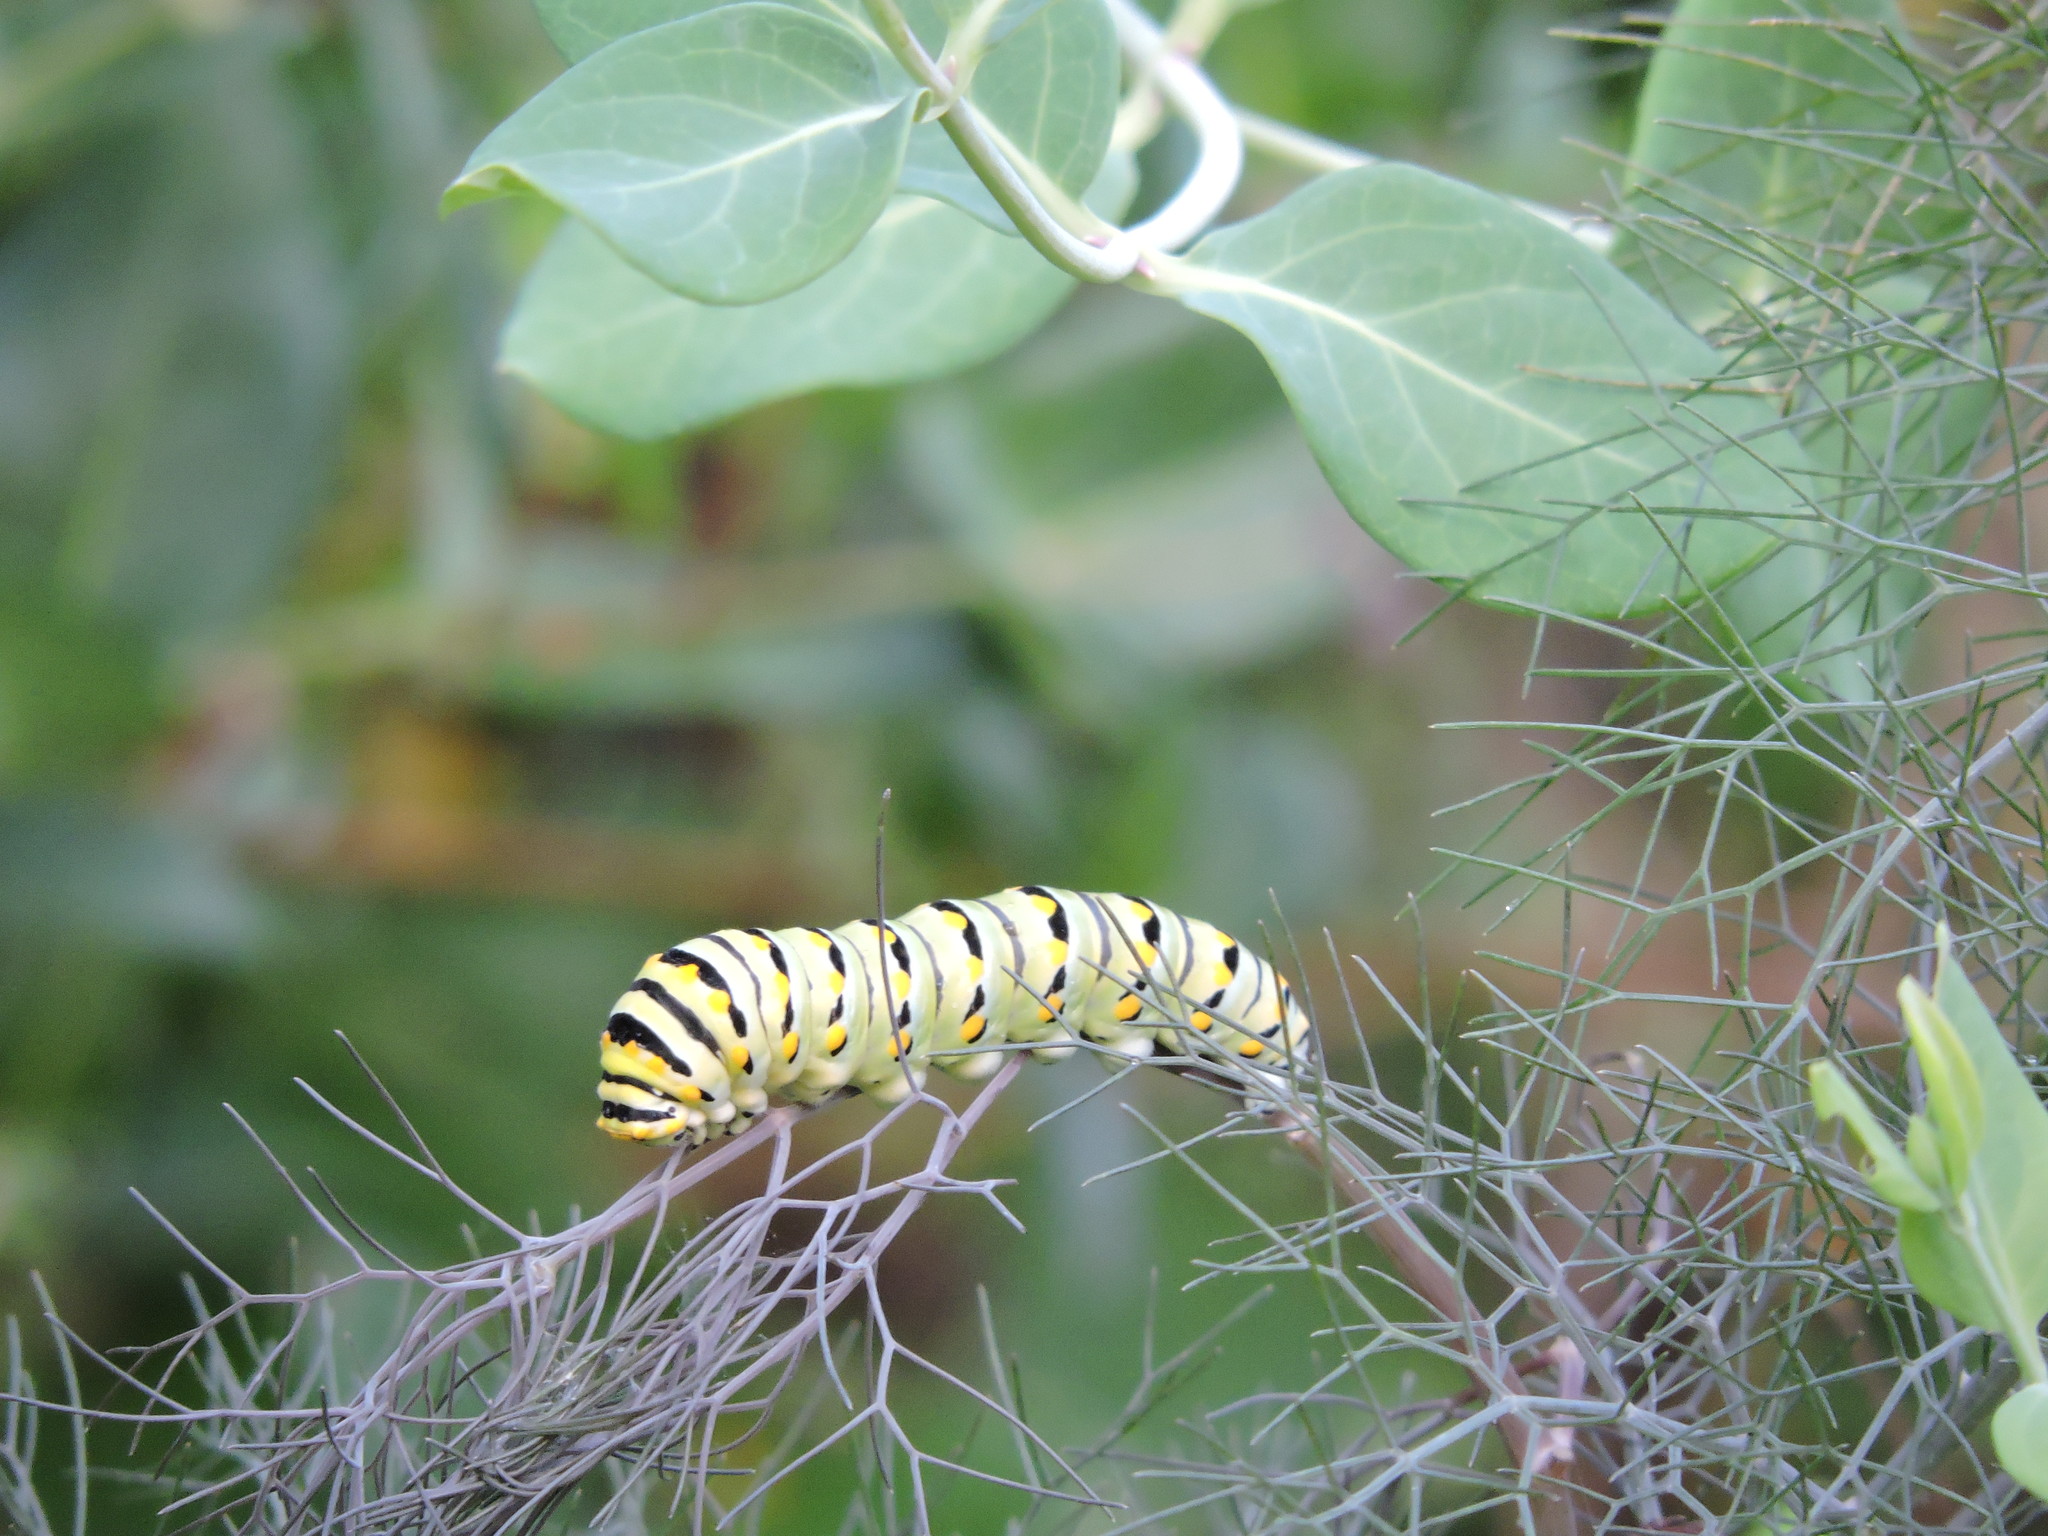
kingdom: Animalia
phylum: Arthropoda
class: Insecta
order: Lepidoptera
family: Papilionidae
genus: Papilio
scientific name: Papilio polyxenes
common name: Black swallowtail
